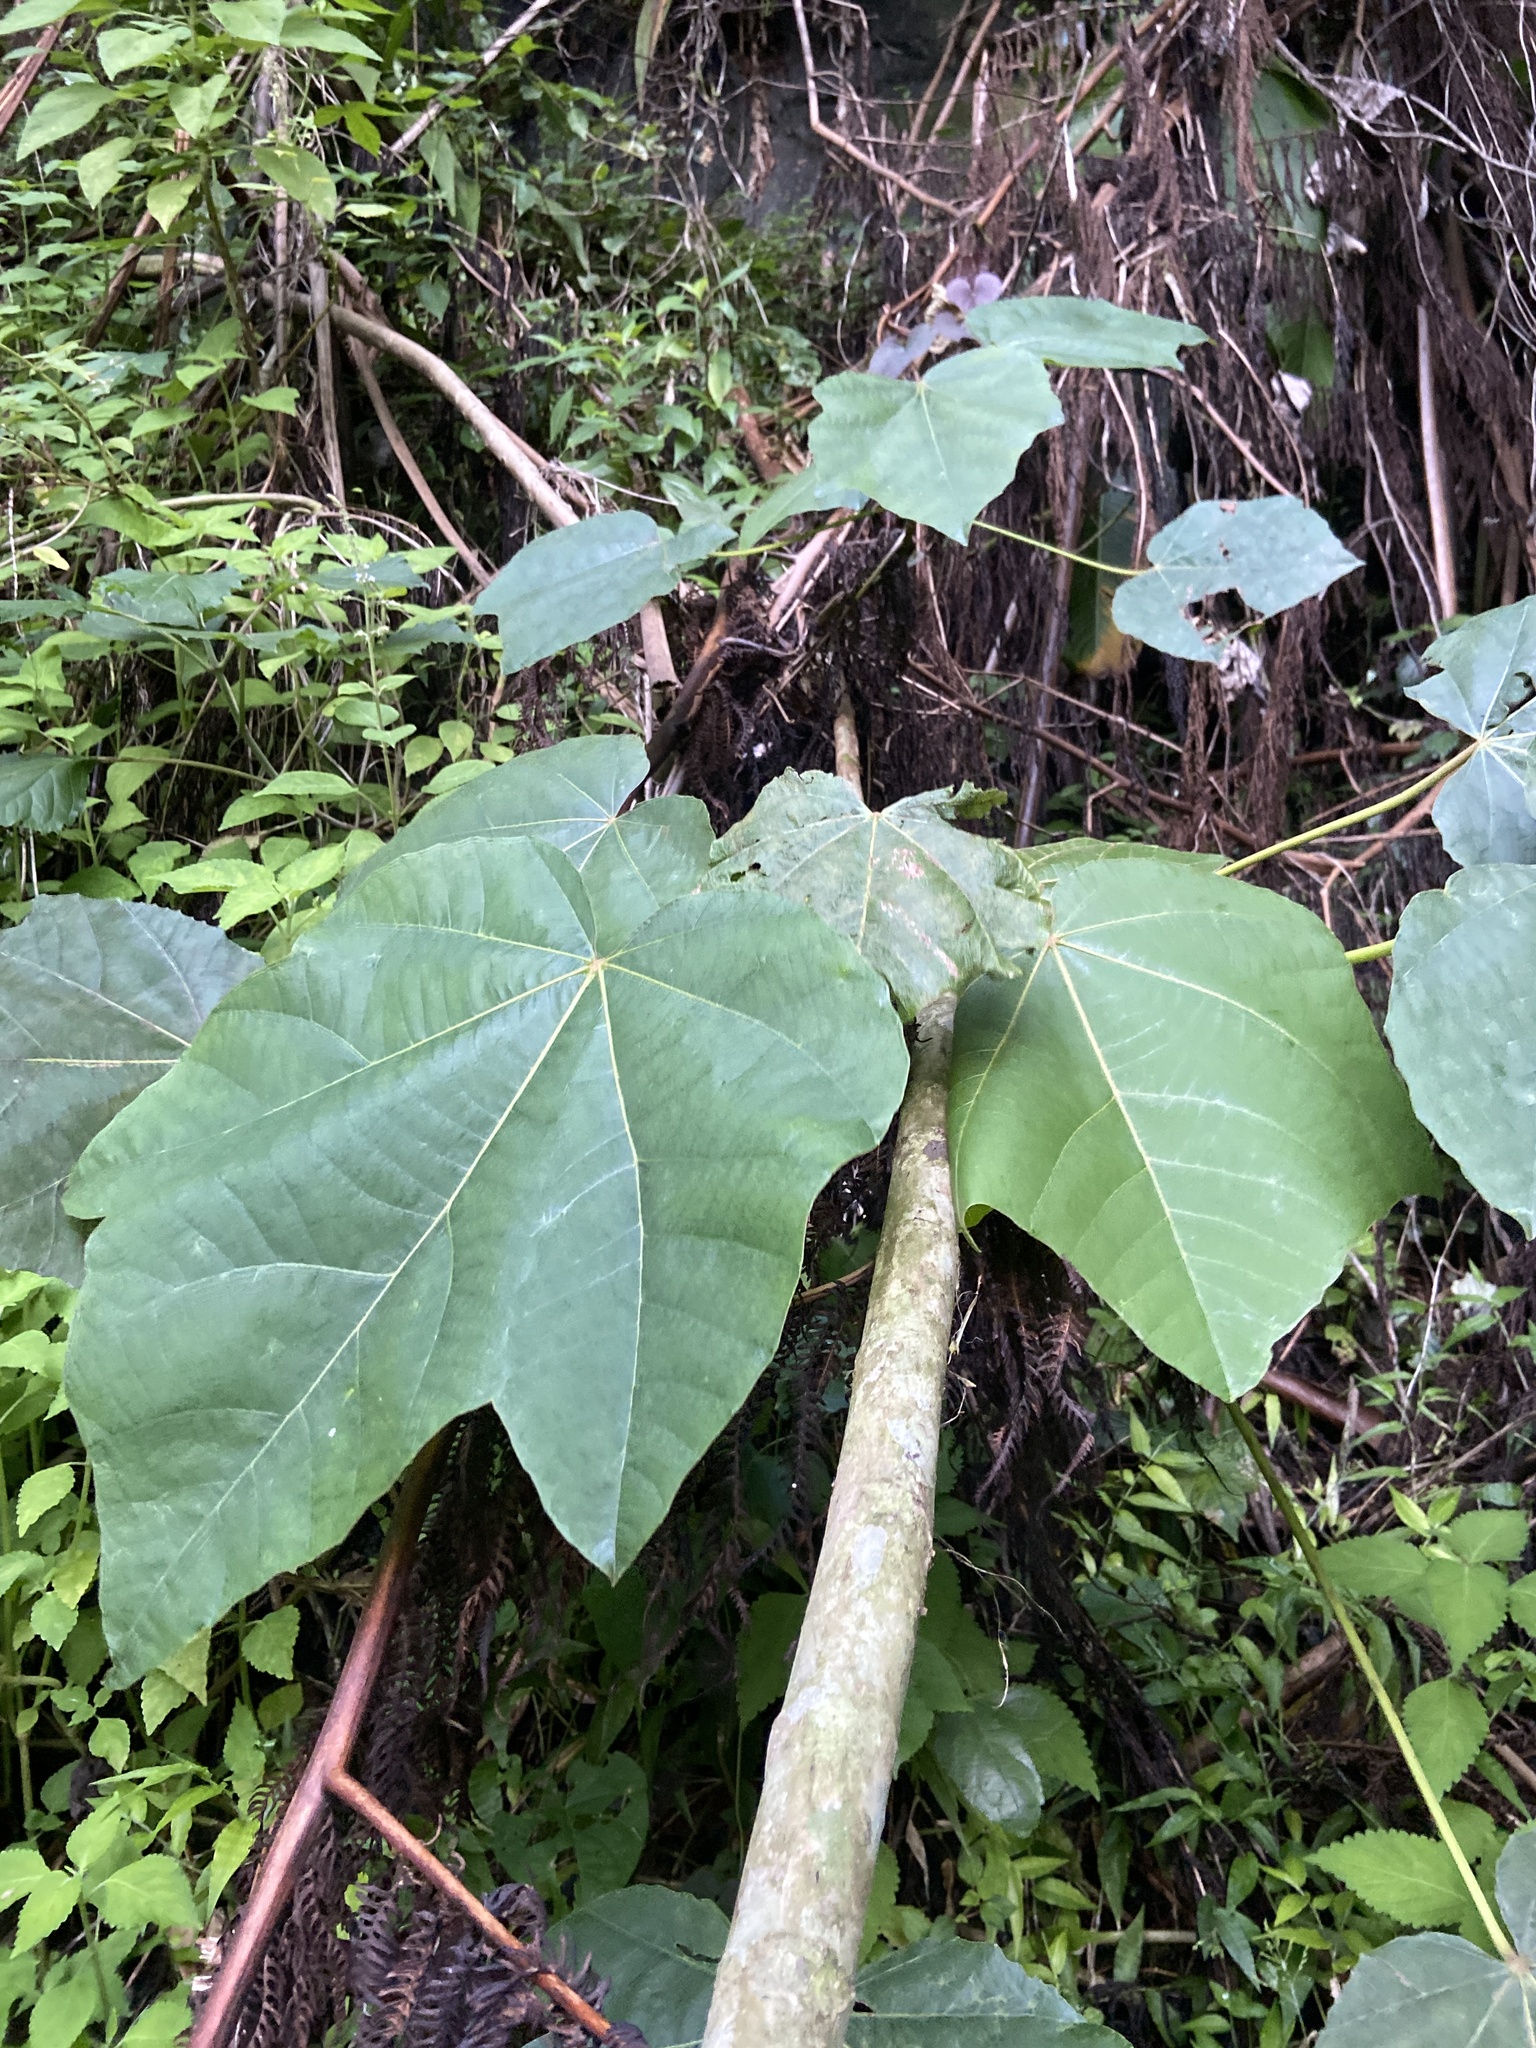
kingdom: Plantae
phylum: Tracheophyta
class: Magnoliopsida
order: Malvales
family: Malvaceae
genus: Ochroma
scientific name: Ochroma pyramidale
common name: Balsa
